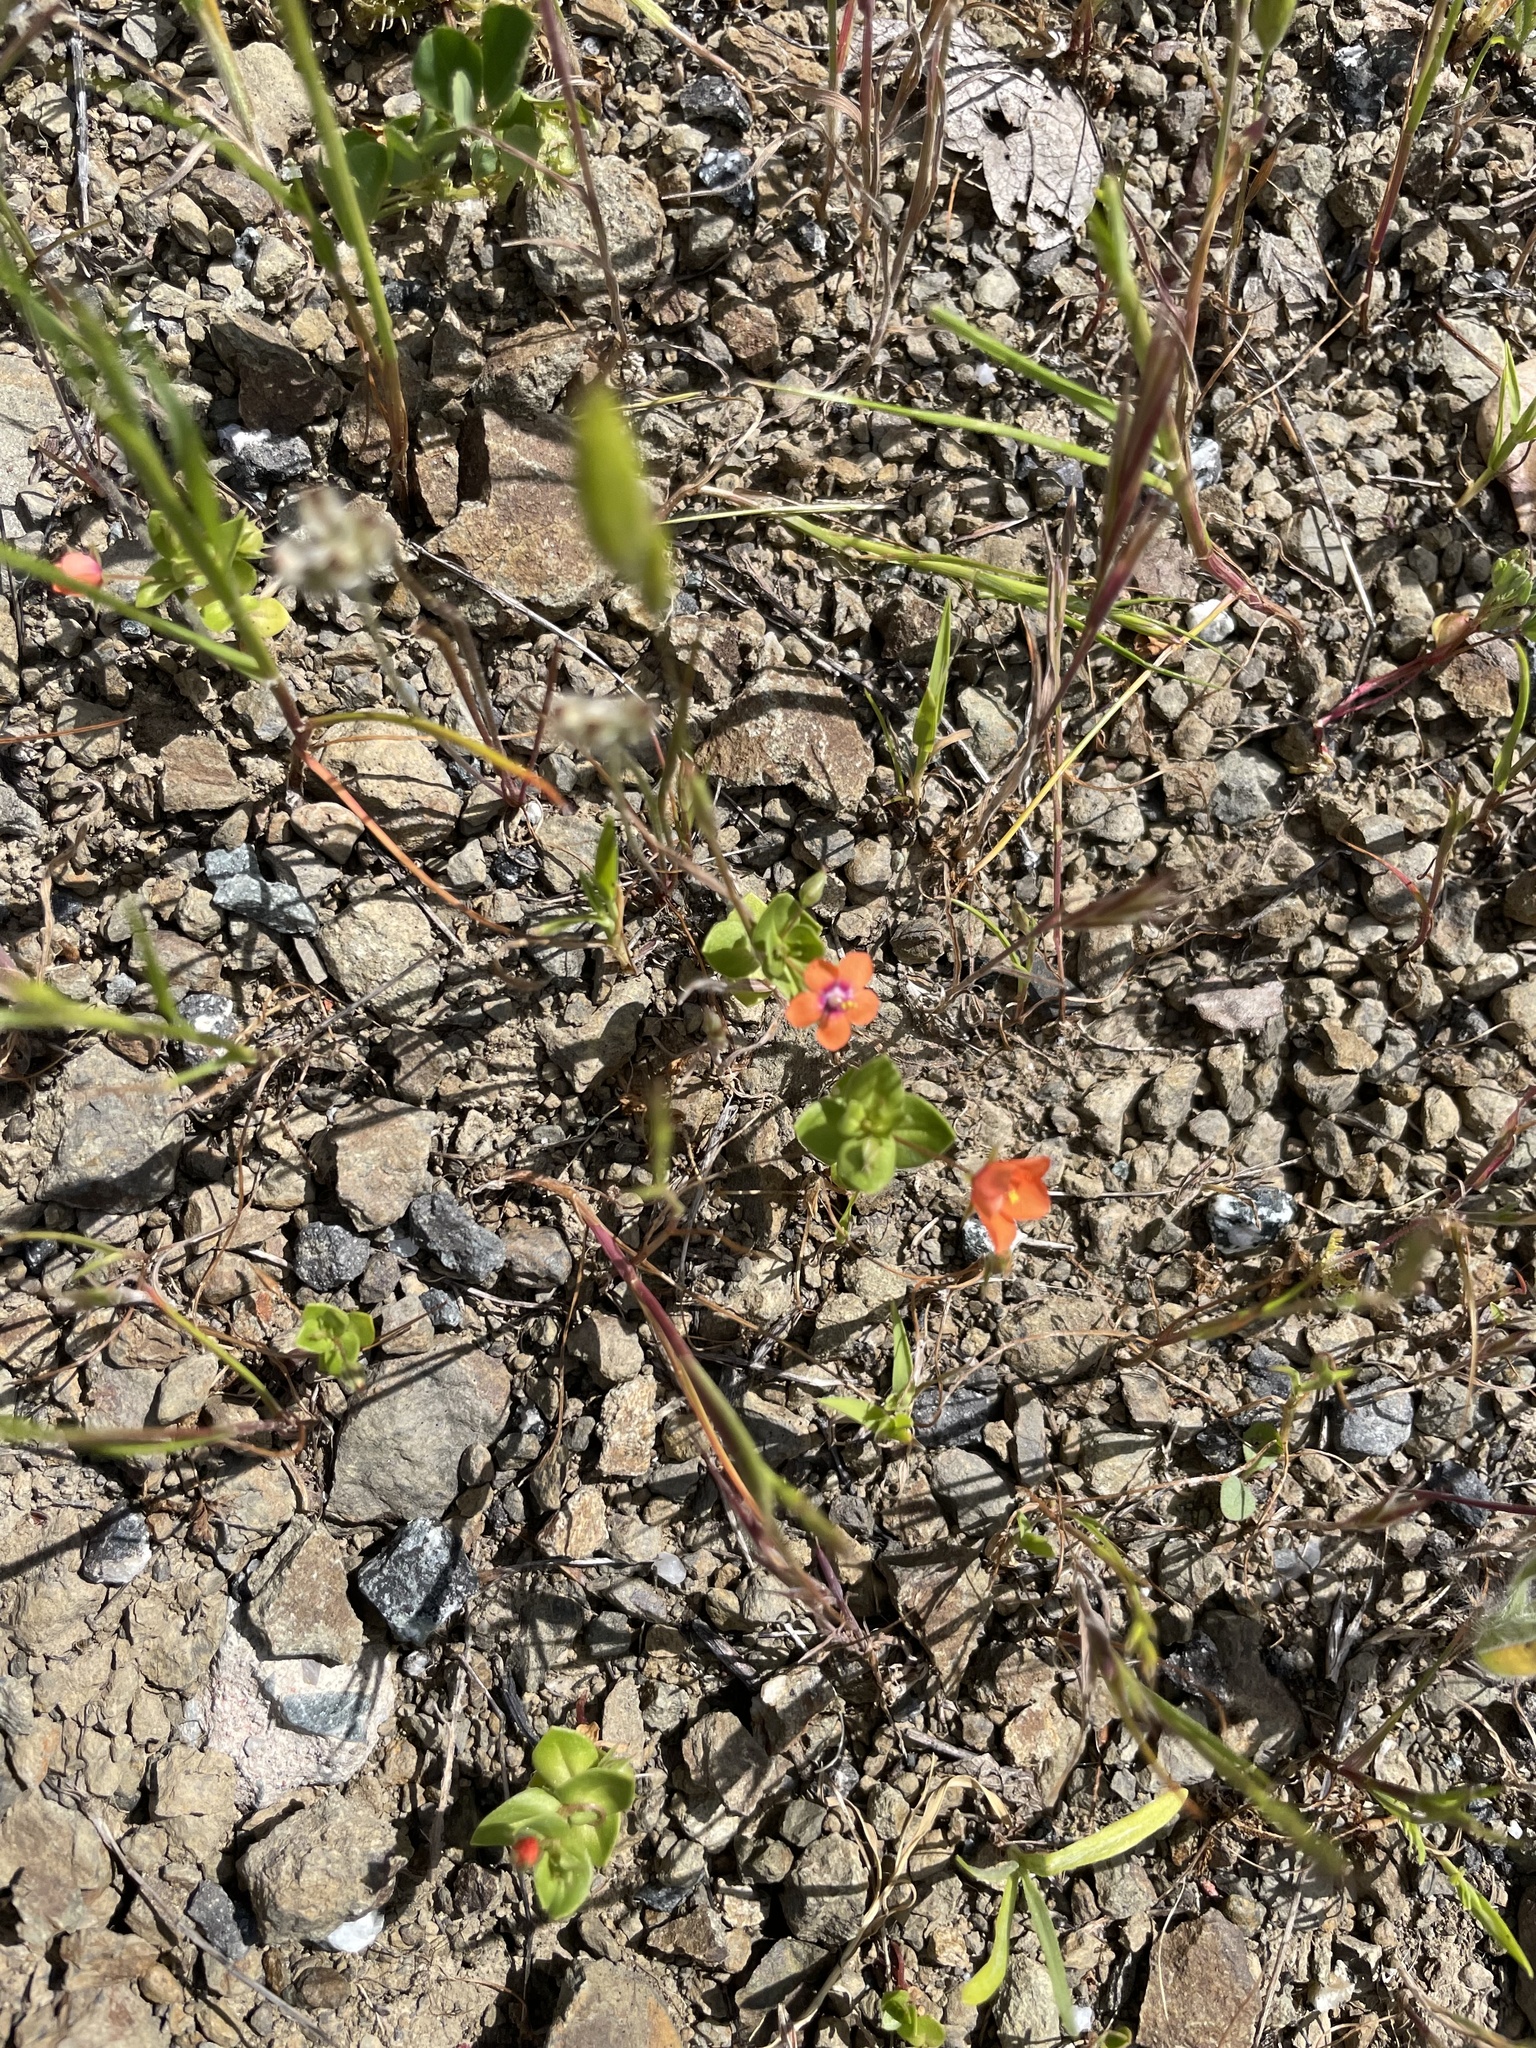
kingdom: Plantae
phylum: Tracheophyta
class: Magnoliopsida
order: Ericales
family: Primulaceae
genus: Lysimachia
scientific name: Lysimachia arvensis
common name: Scarlet pimpernel
